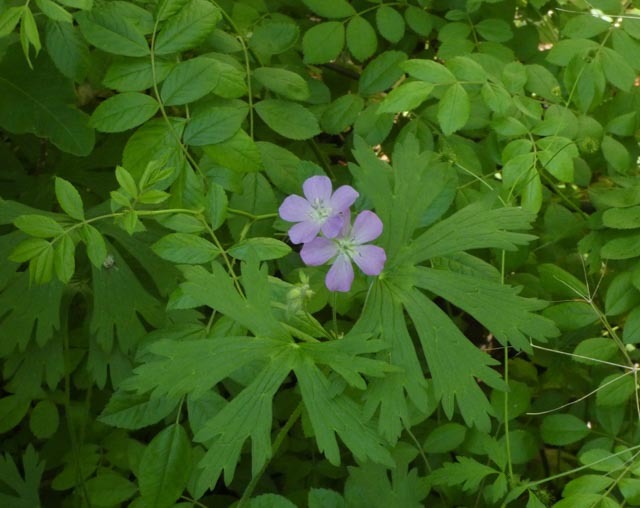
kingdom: Plantae
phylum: Tracheophyta
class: Magnoliopsida
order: Geraniales
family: Geraniaceae
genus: Geranium
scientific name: Geranium maculatum
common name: Spotted geranium
